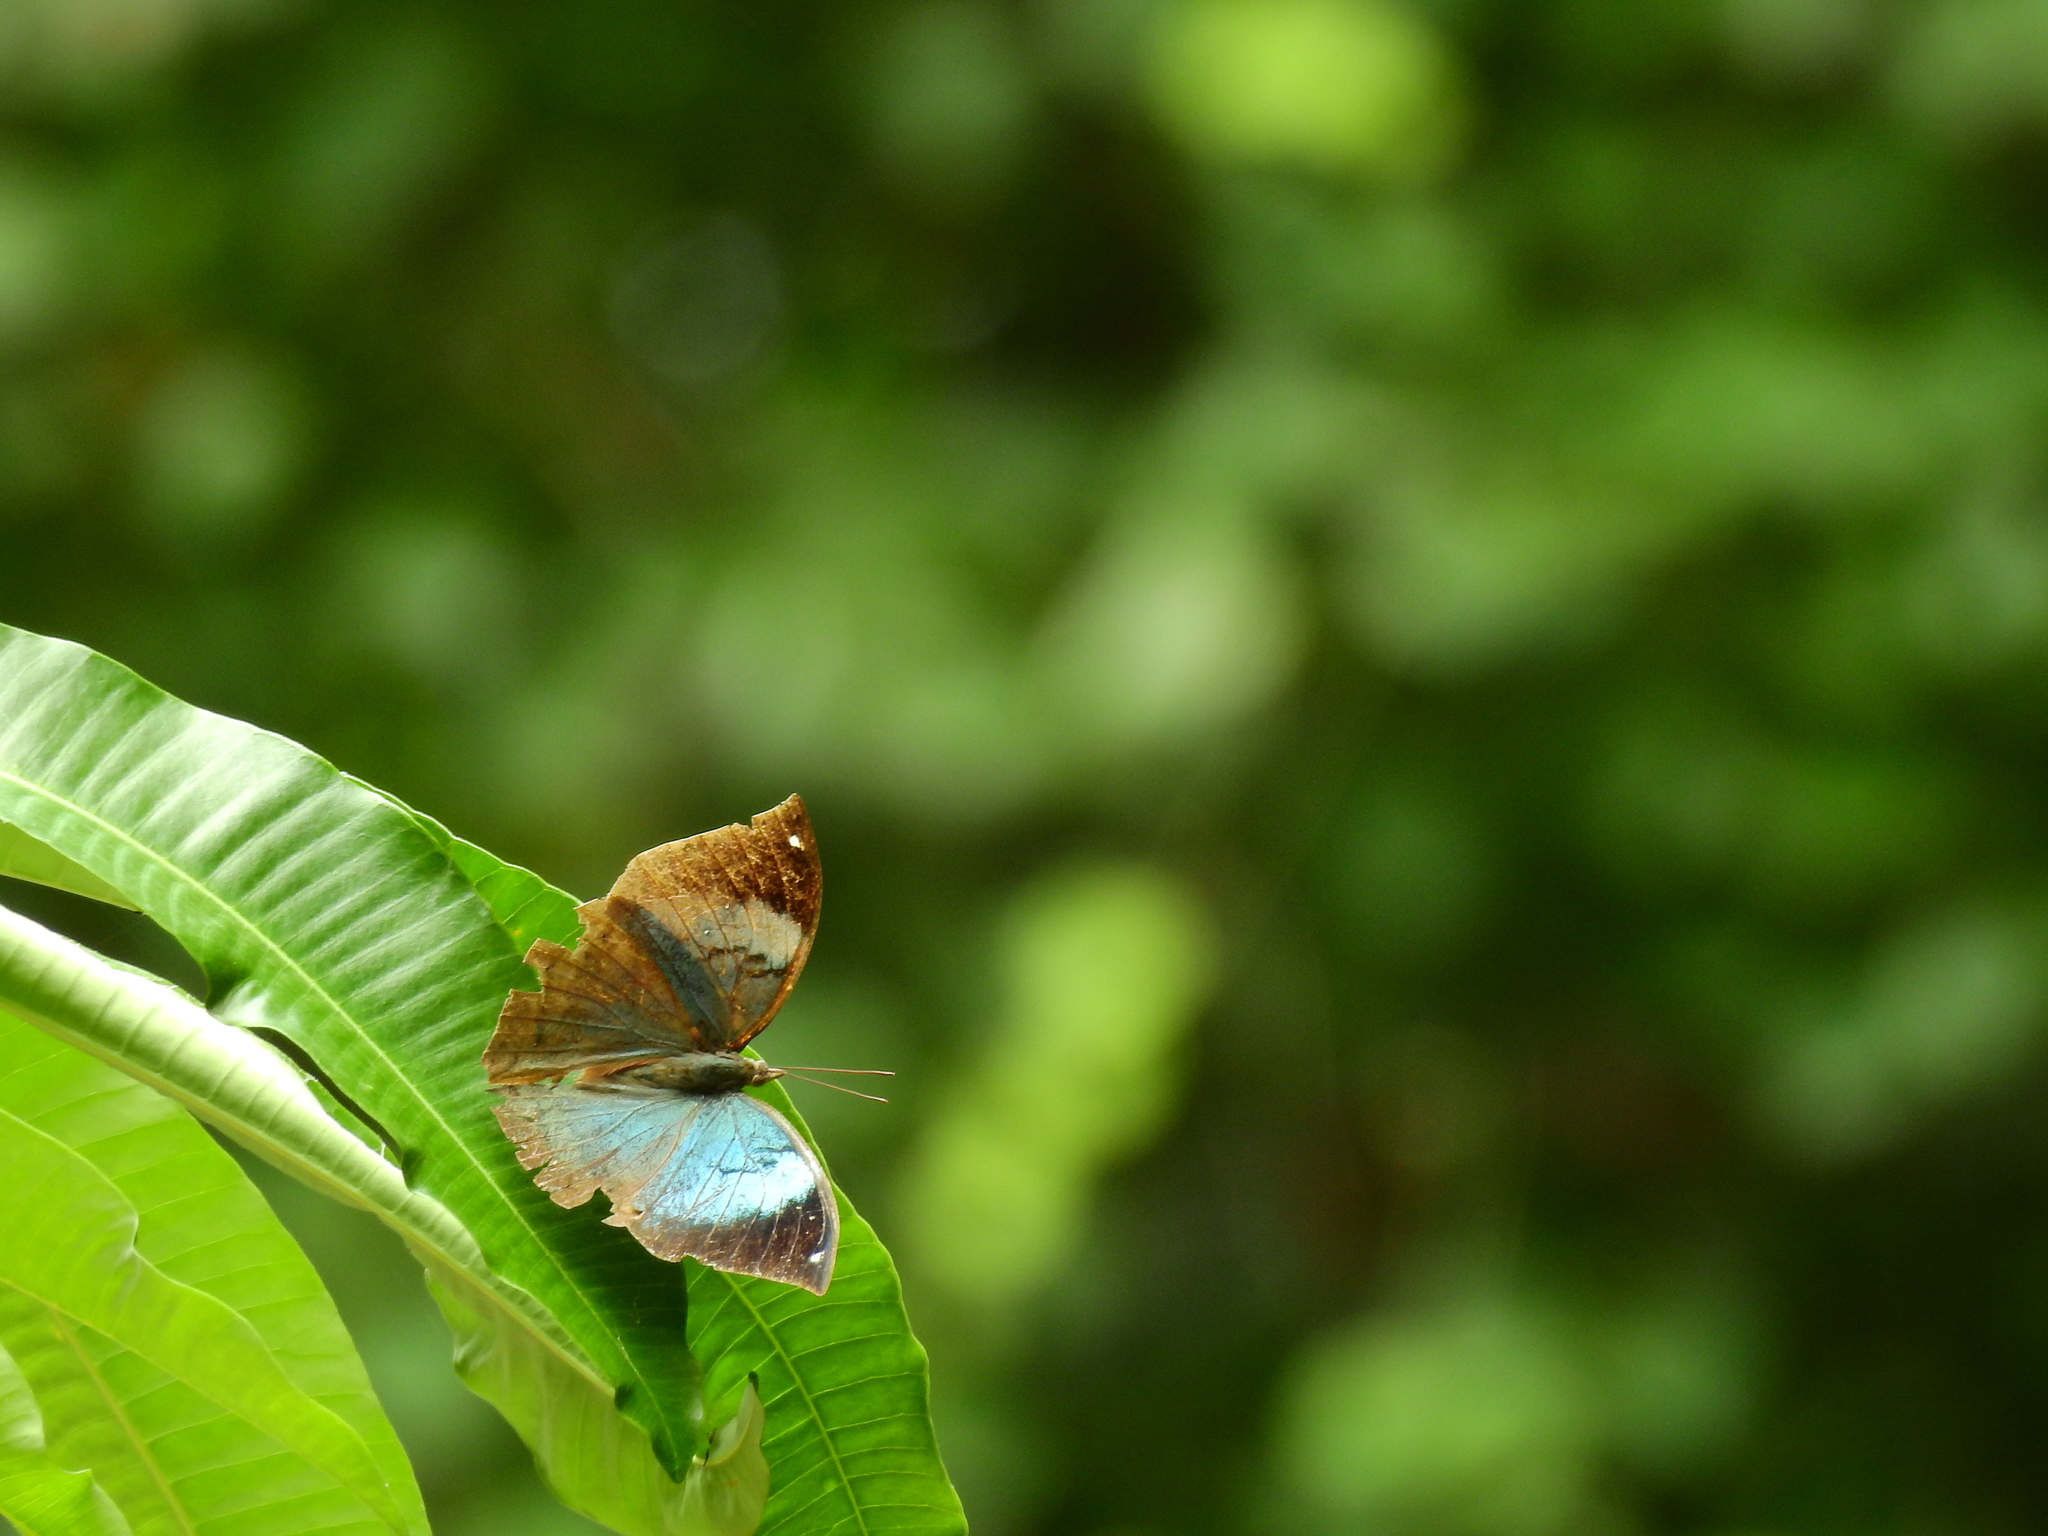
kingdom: Animalia
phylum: Arthropoda
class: Insecta
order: Lepidoptera
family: Nymphalidae
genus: Kallima
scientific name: Kallima horsfieldii
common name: Sahyadri blue oakleaf
